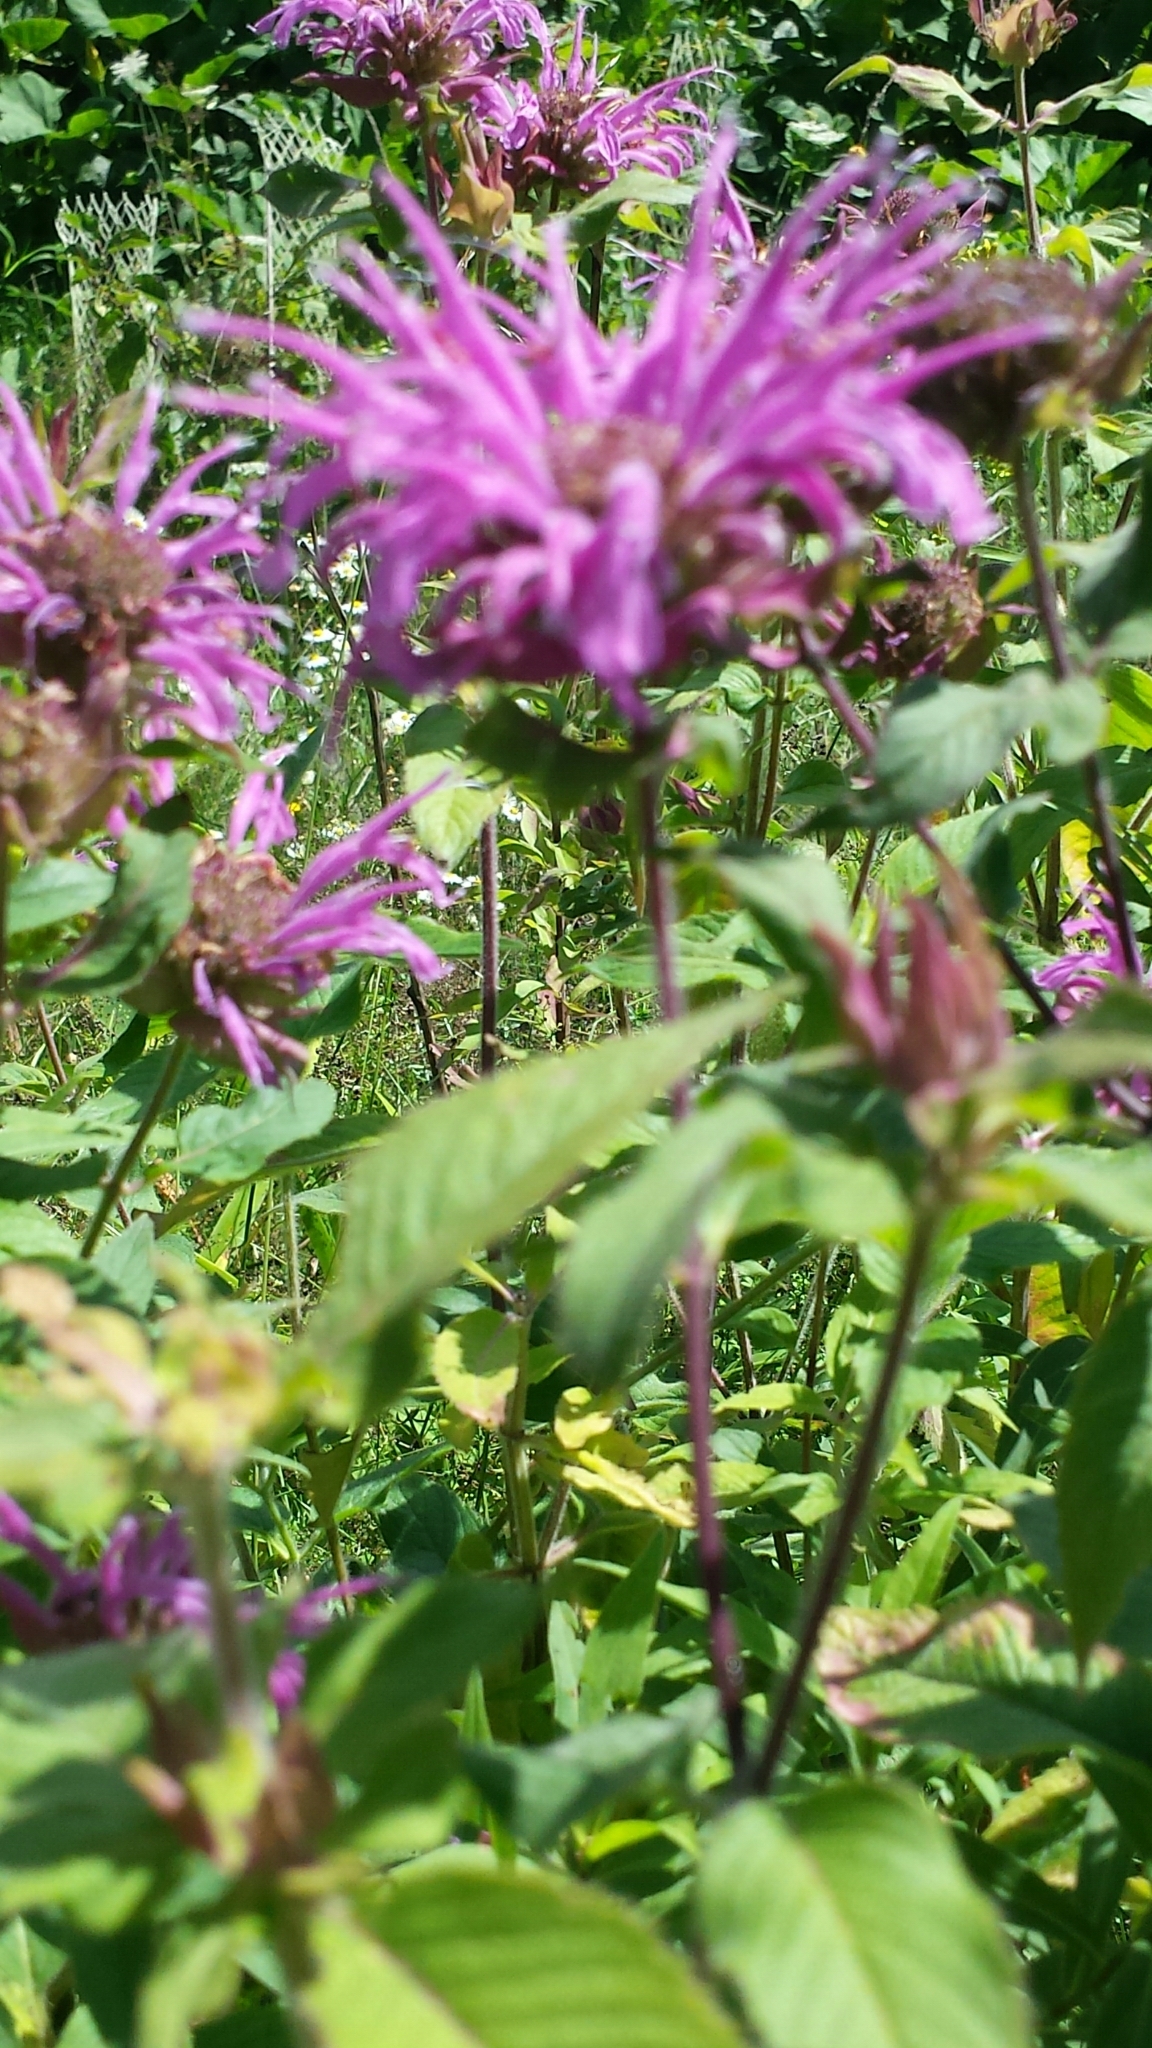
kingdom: Plantae
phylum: Tracheophyta
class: Magnoliopsida
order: Lamiales
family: Lamiaceae
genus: Monarda
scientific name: Monarda fistulosa
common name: Purple beebalm
